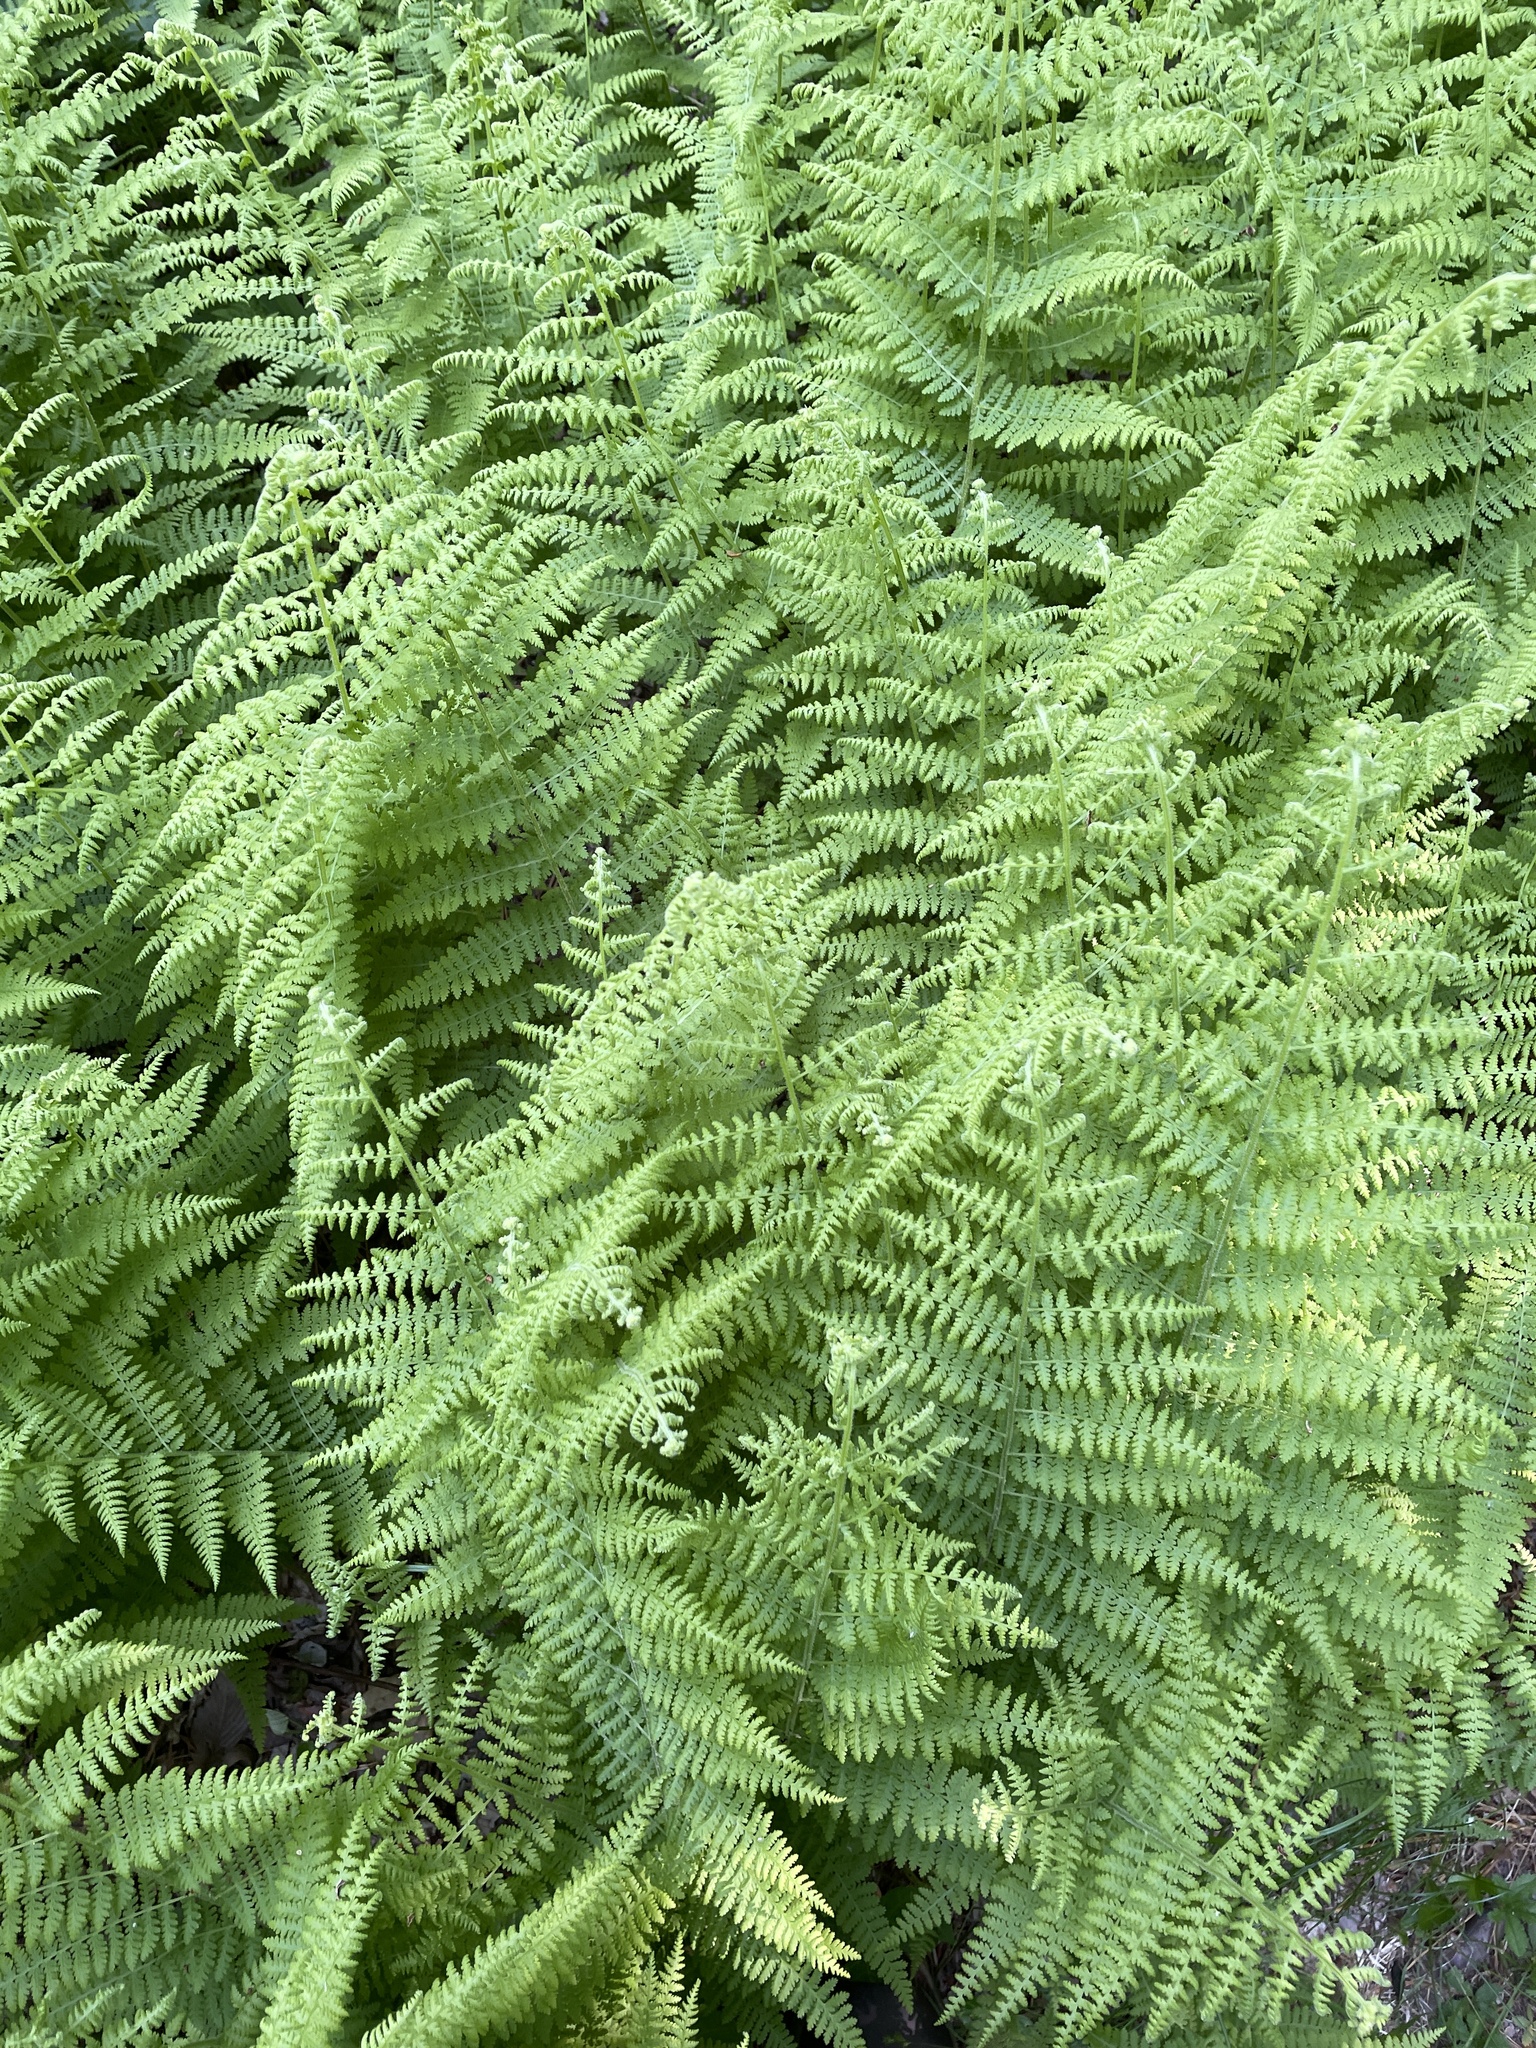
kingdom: Plantae
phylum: Tracheophyta
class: Polypodiopsida
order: Polypodiales
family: Dennstaedtiaceae
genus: Sitobolium
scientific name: Sitobolium punctilobum
